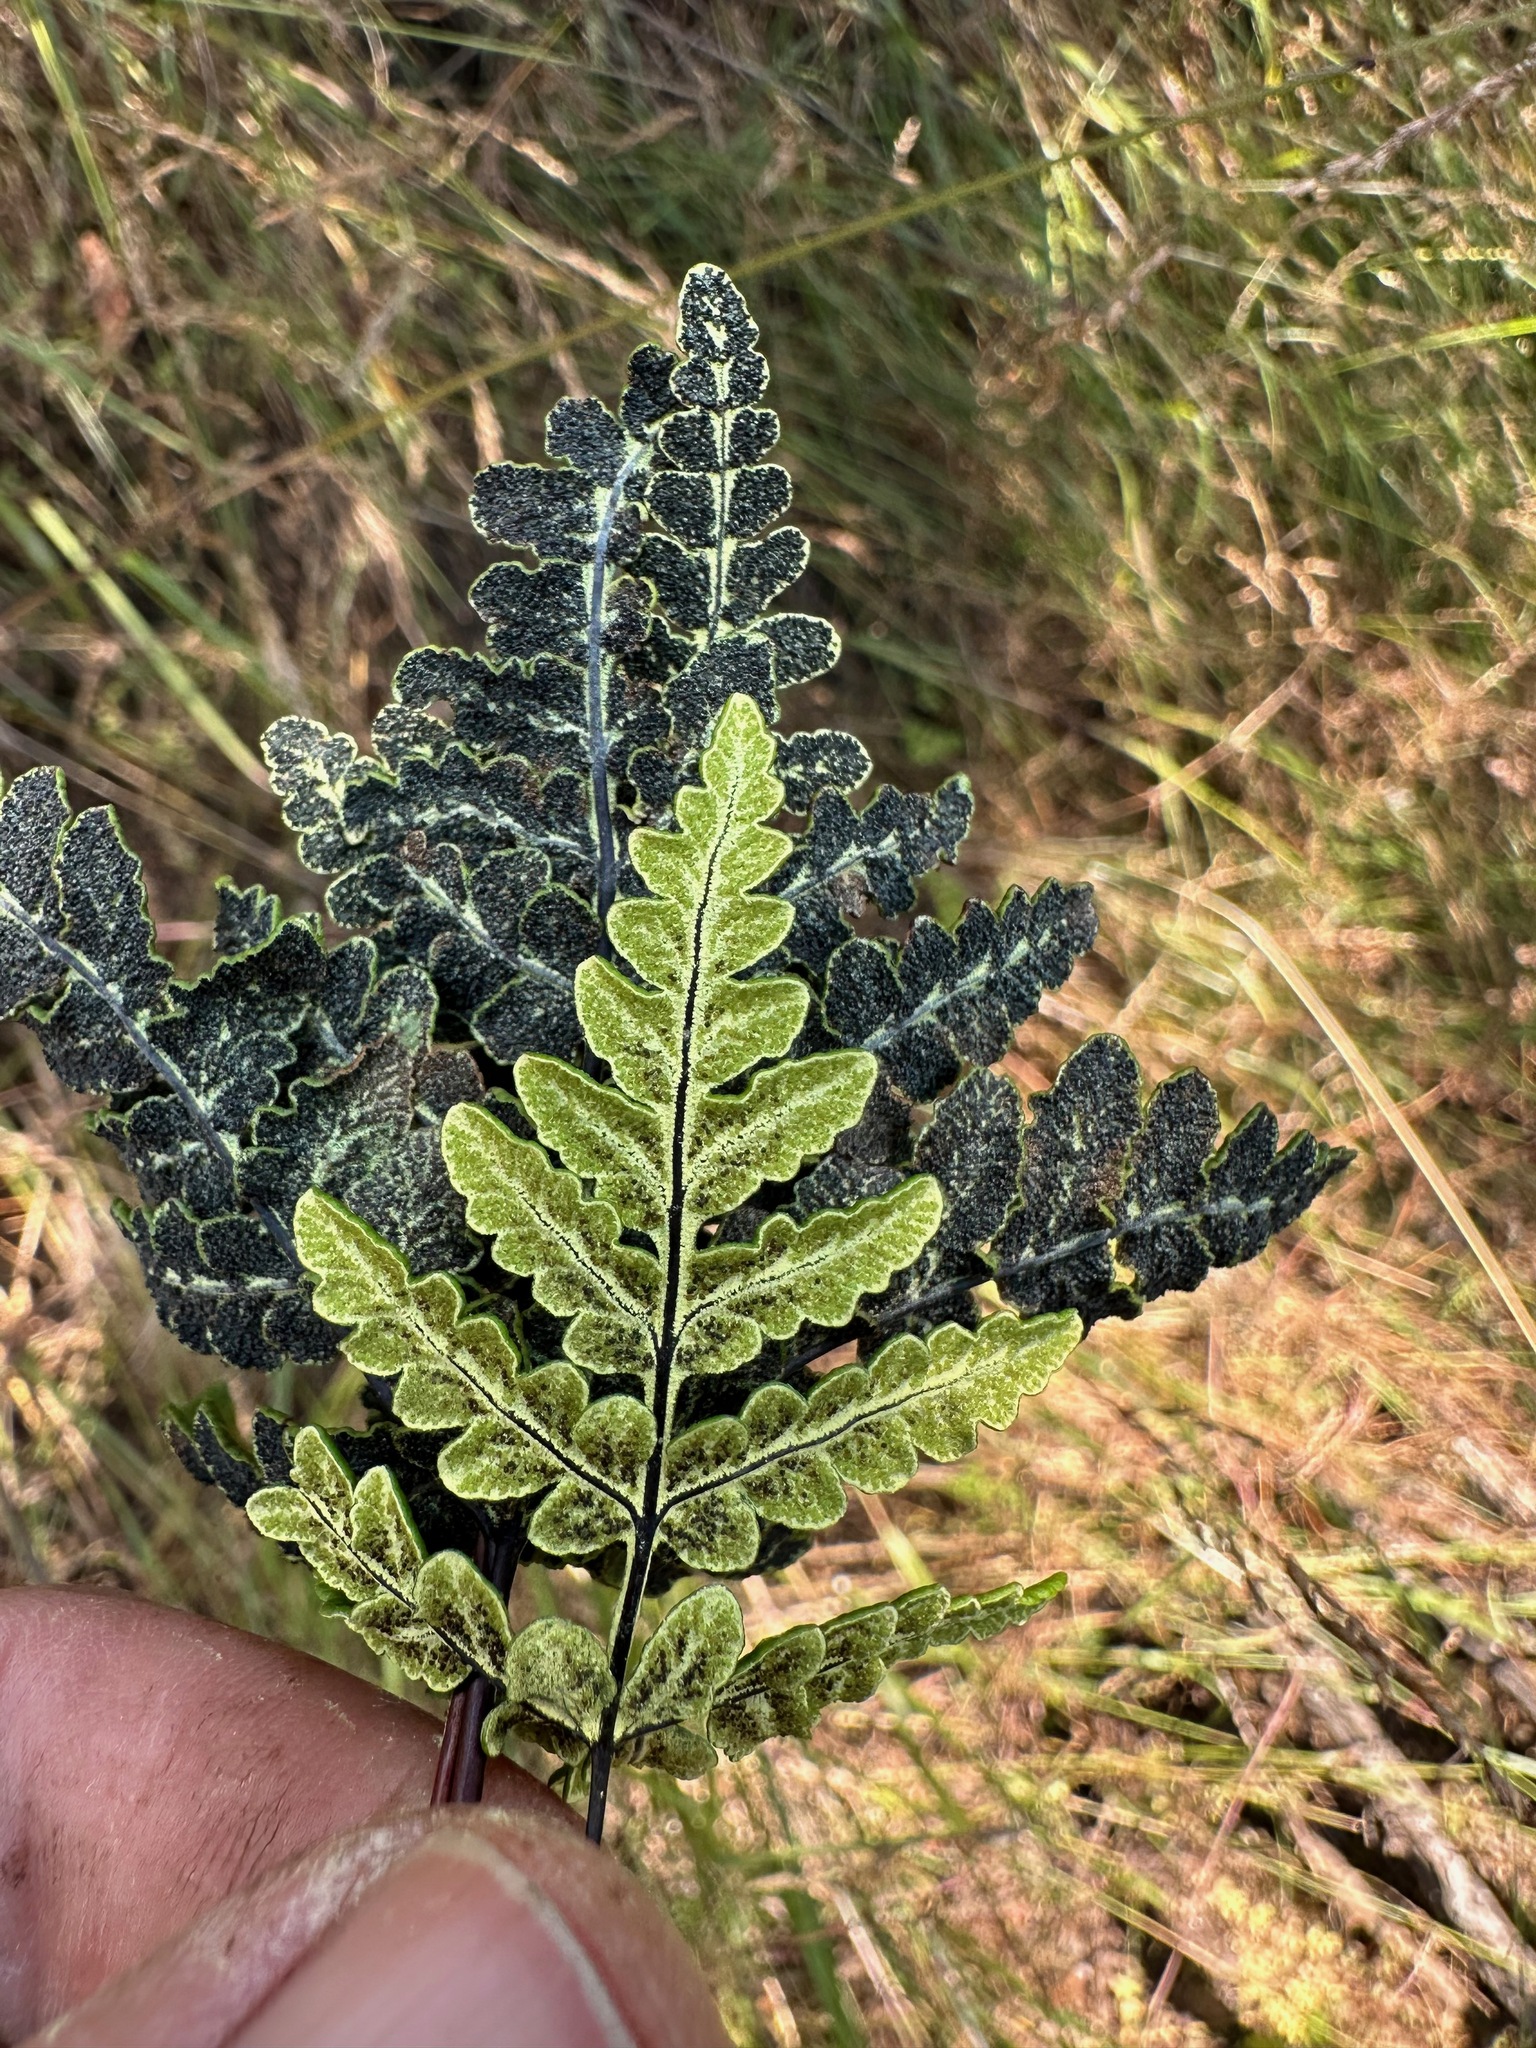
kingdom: Plantae
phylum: Tracheophyta
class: Polypodiopsida
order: Polypodiales
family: Pteridaceae
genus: Pentagramma
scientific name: Pentagramma triangularis
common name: Gold fern
